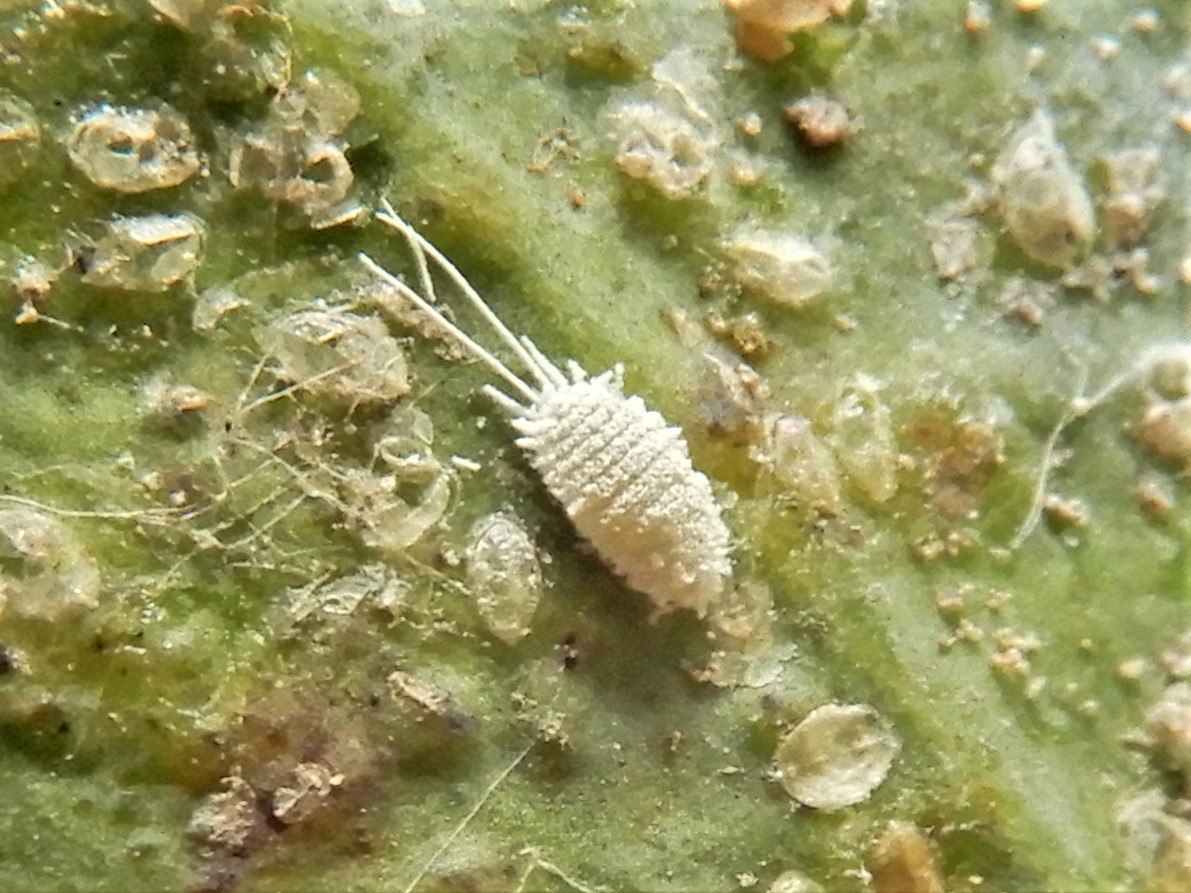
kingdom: Animalia
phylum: Arthropoda
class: Insecta
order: Hemiptera
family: Pseudococcidae
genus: Pseudococcus
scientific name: Pseudococcus longispinus
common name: Long-tailed mealybug
